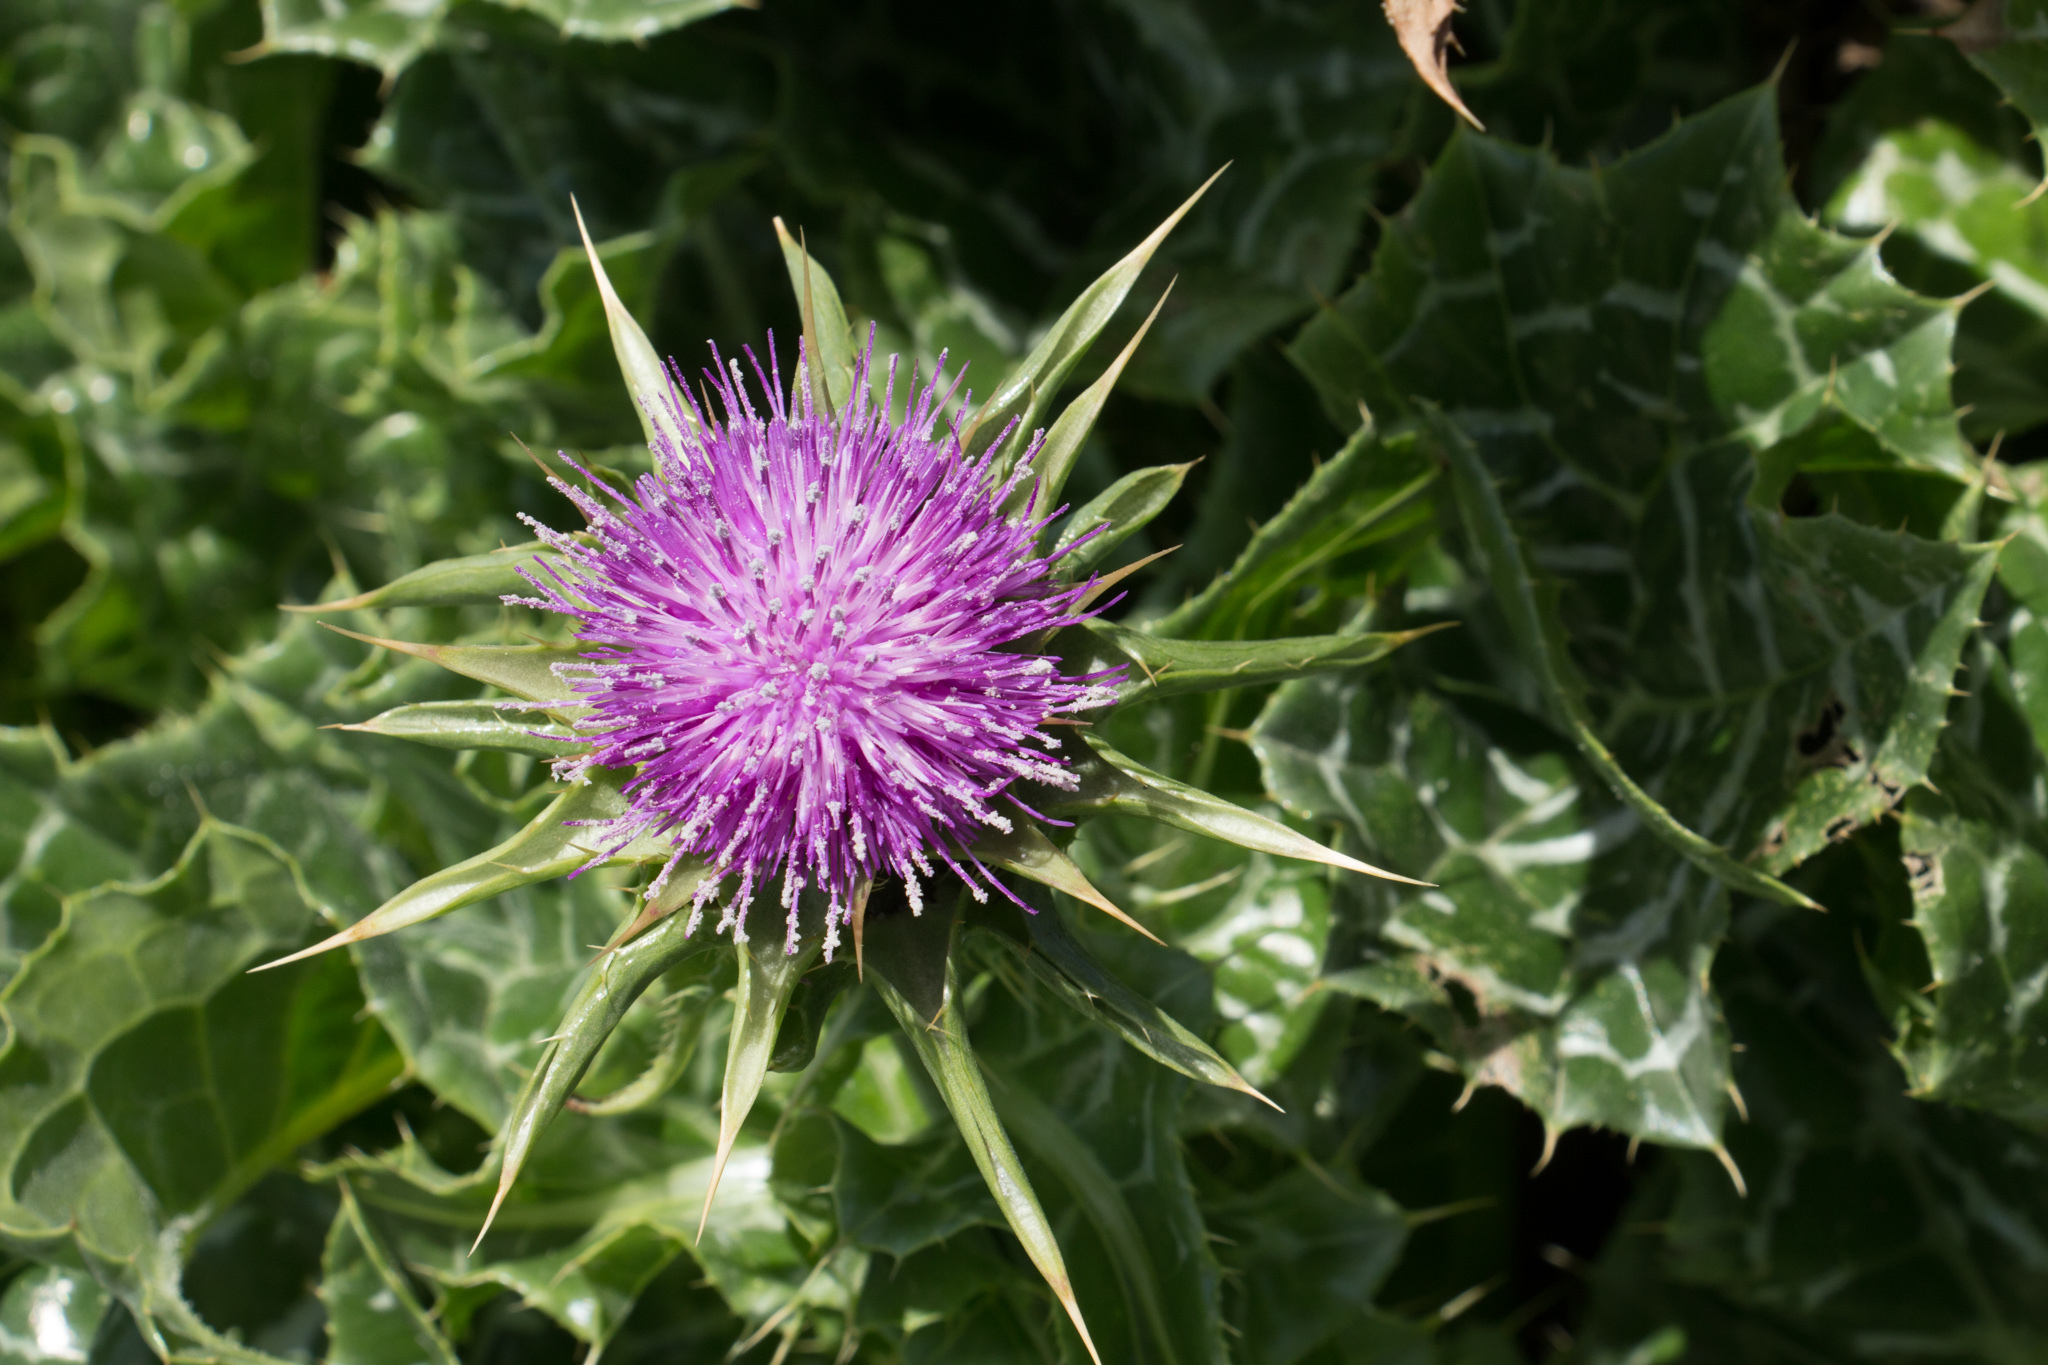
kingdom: Plantae
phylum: Tracheophyta
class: Magnoliopsida
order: Asterales
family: Asteraceae
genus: Silybum
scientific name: Silybum marianum
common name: Milk thistle
